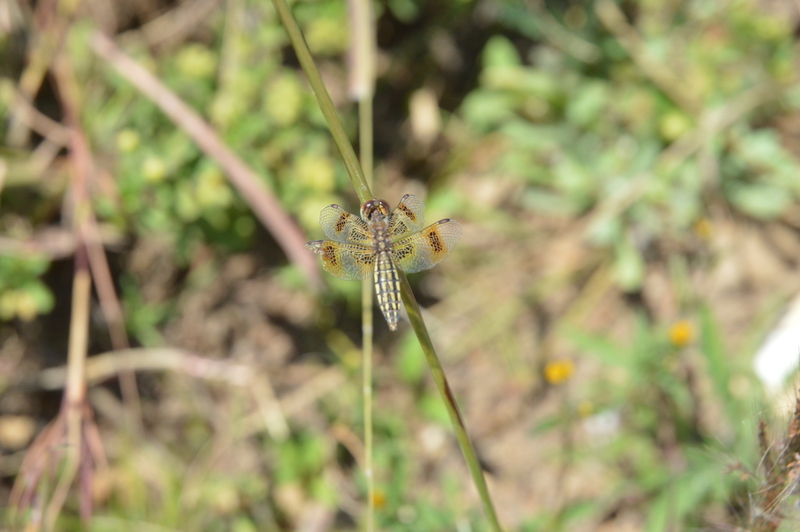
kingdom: Animalia
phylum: Arthropoda
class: Insecta
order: Odonata
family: Libellulidae
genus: Palpopleura
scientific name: Palpopleura jucunda
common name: Yellow-veined widow
